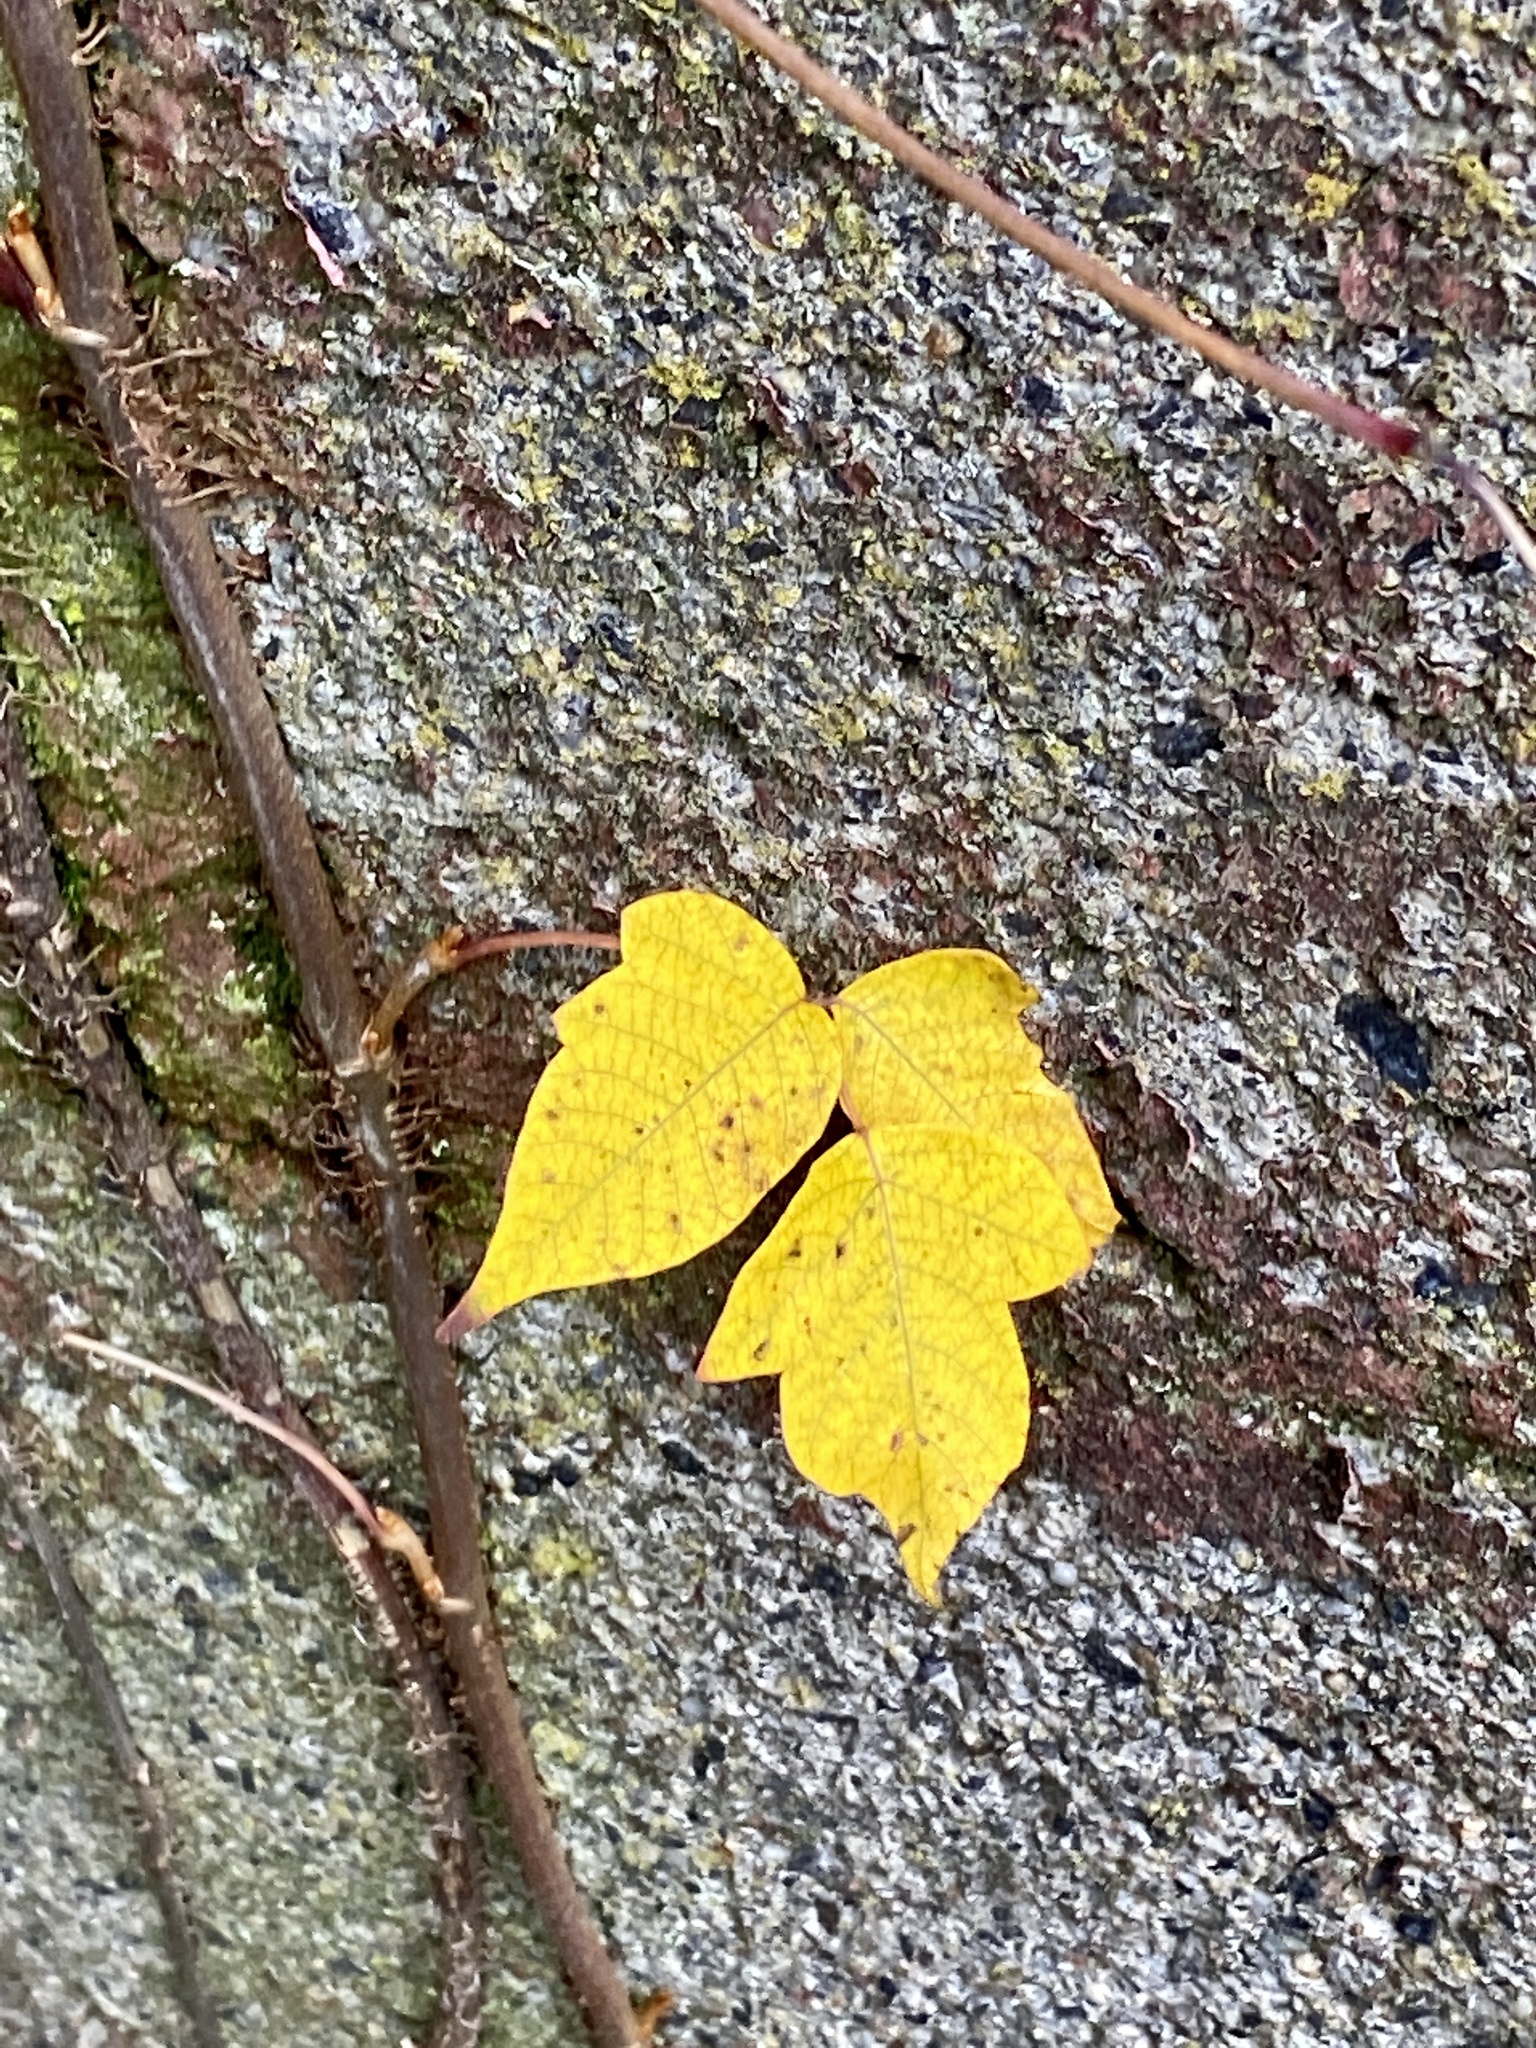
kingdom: Plantae
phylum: Tracheophyta
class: Magnoliopsida
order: Sapindales
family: Anacardiaceae
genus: Toxicodendron
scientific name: Toxicodendron radicans
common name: Poison ivy
